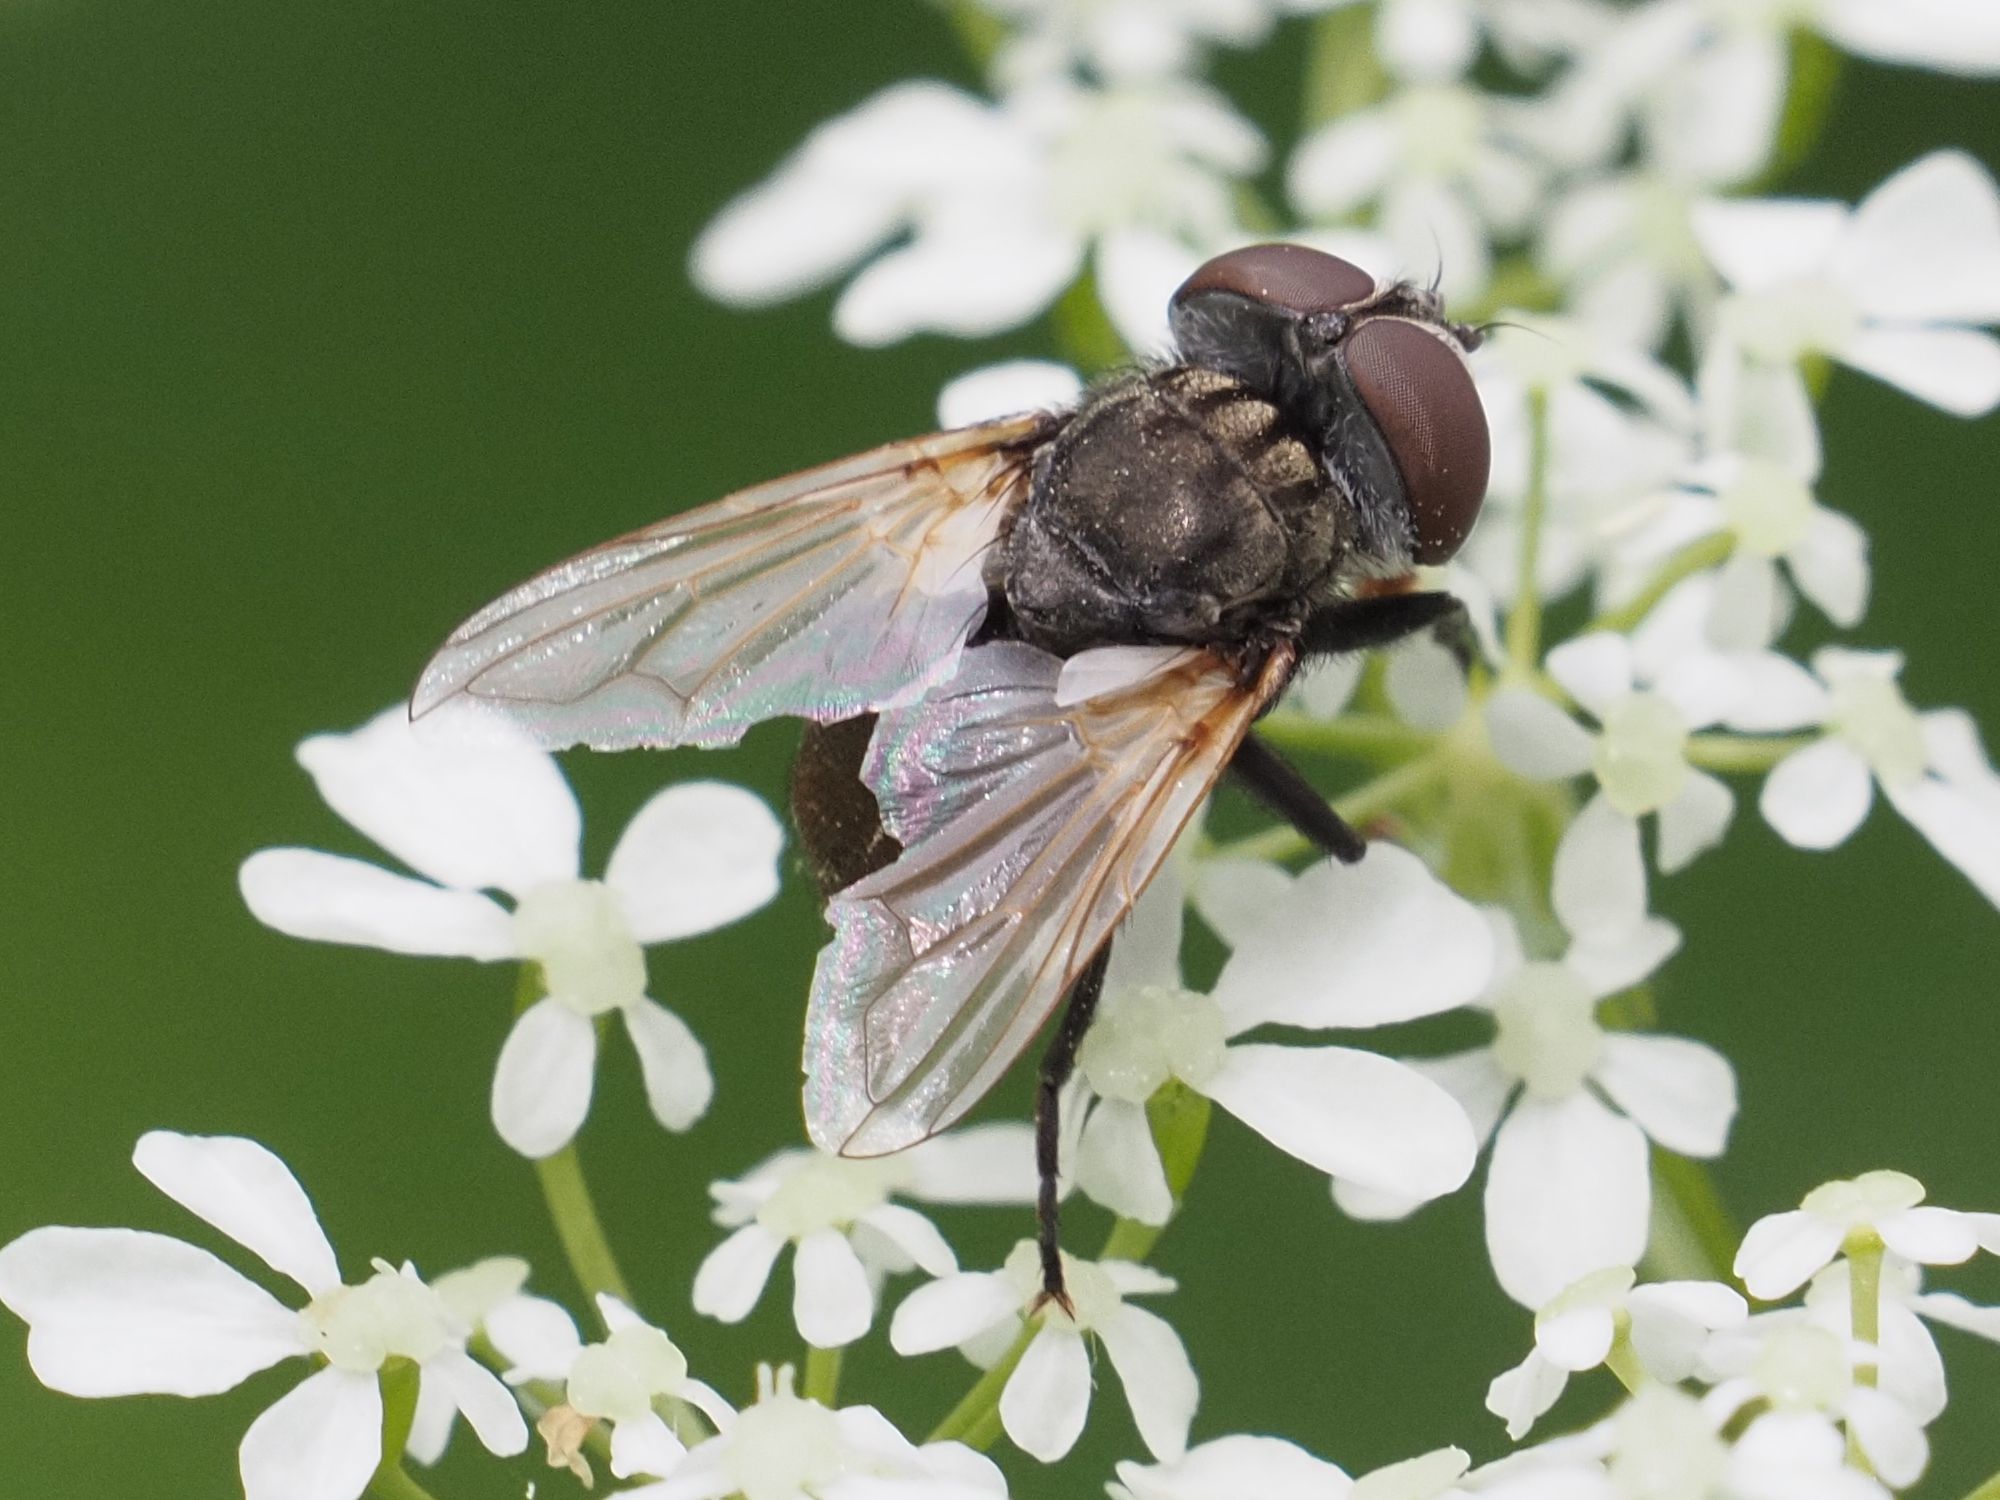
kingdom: Animalia
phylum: Arthropoda
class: Insecta
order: Diptera
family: Tachinidae
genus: Phasia
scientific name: Phasia subcoleoptrata
